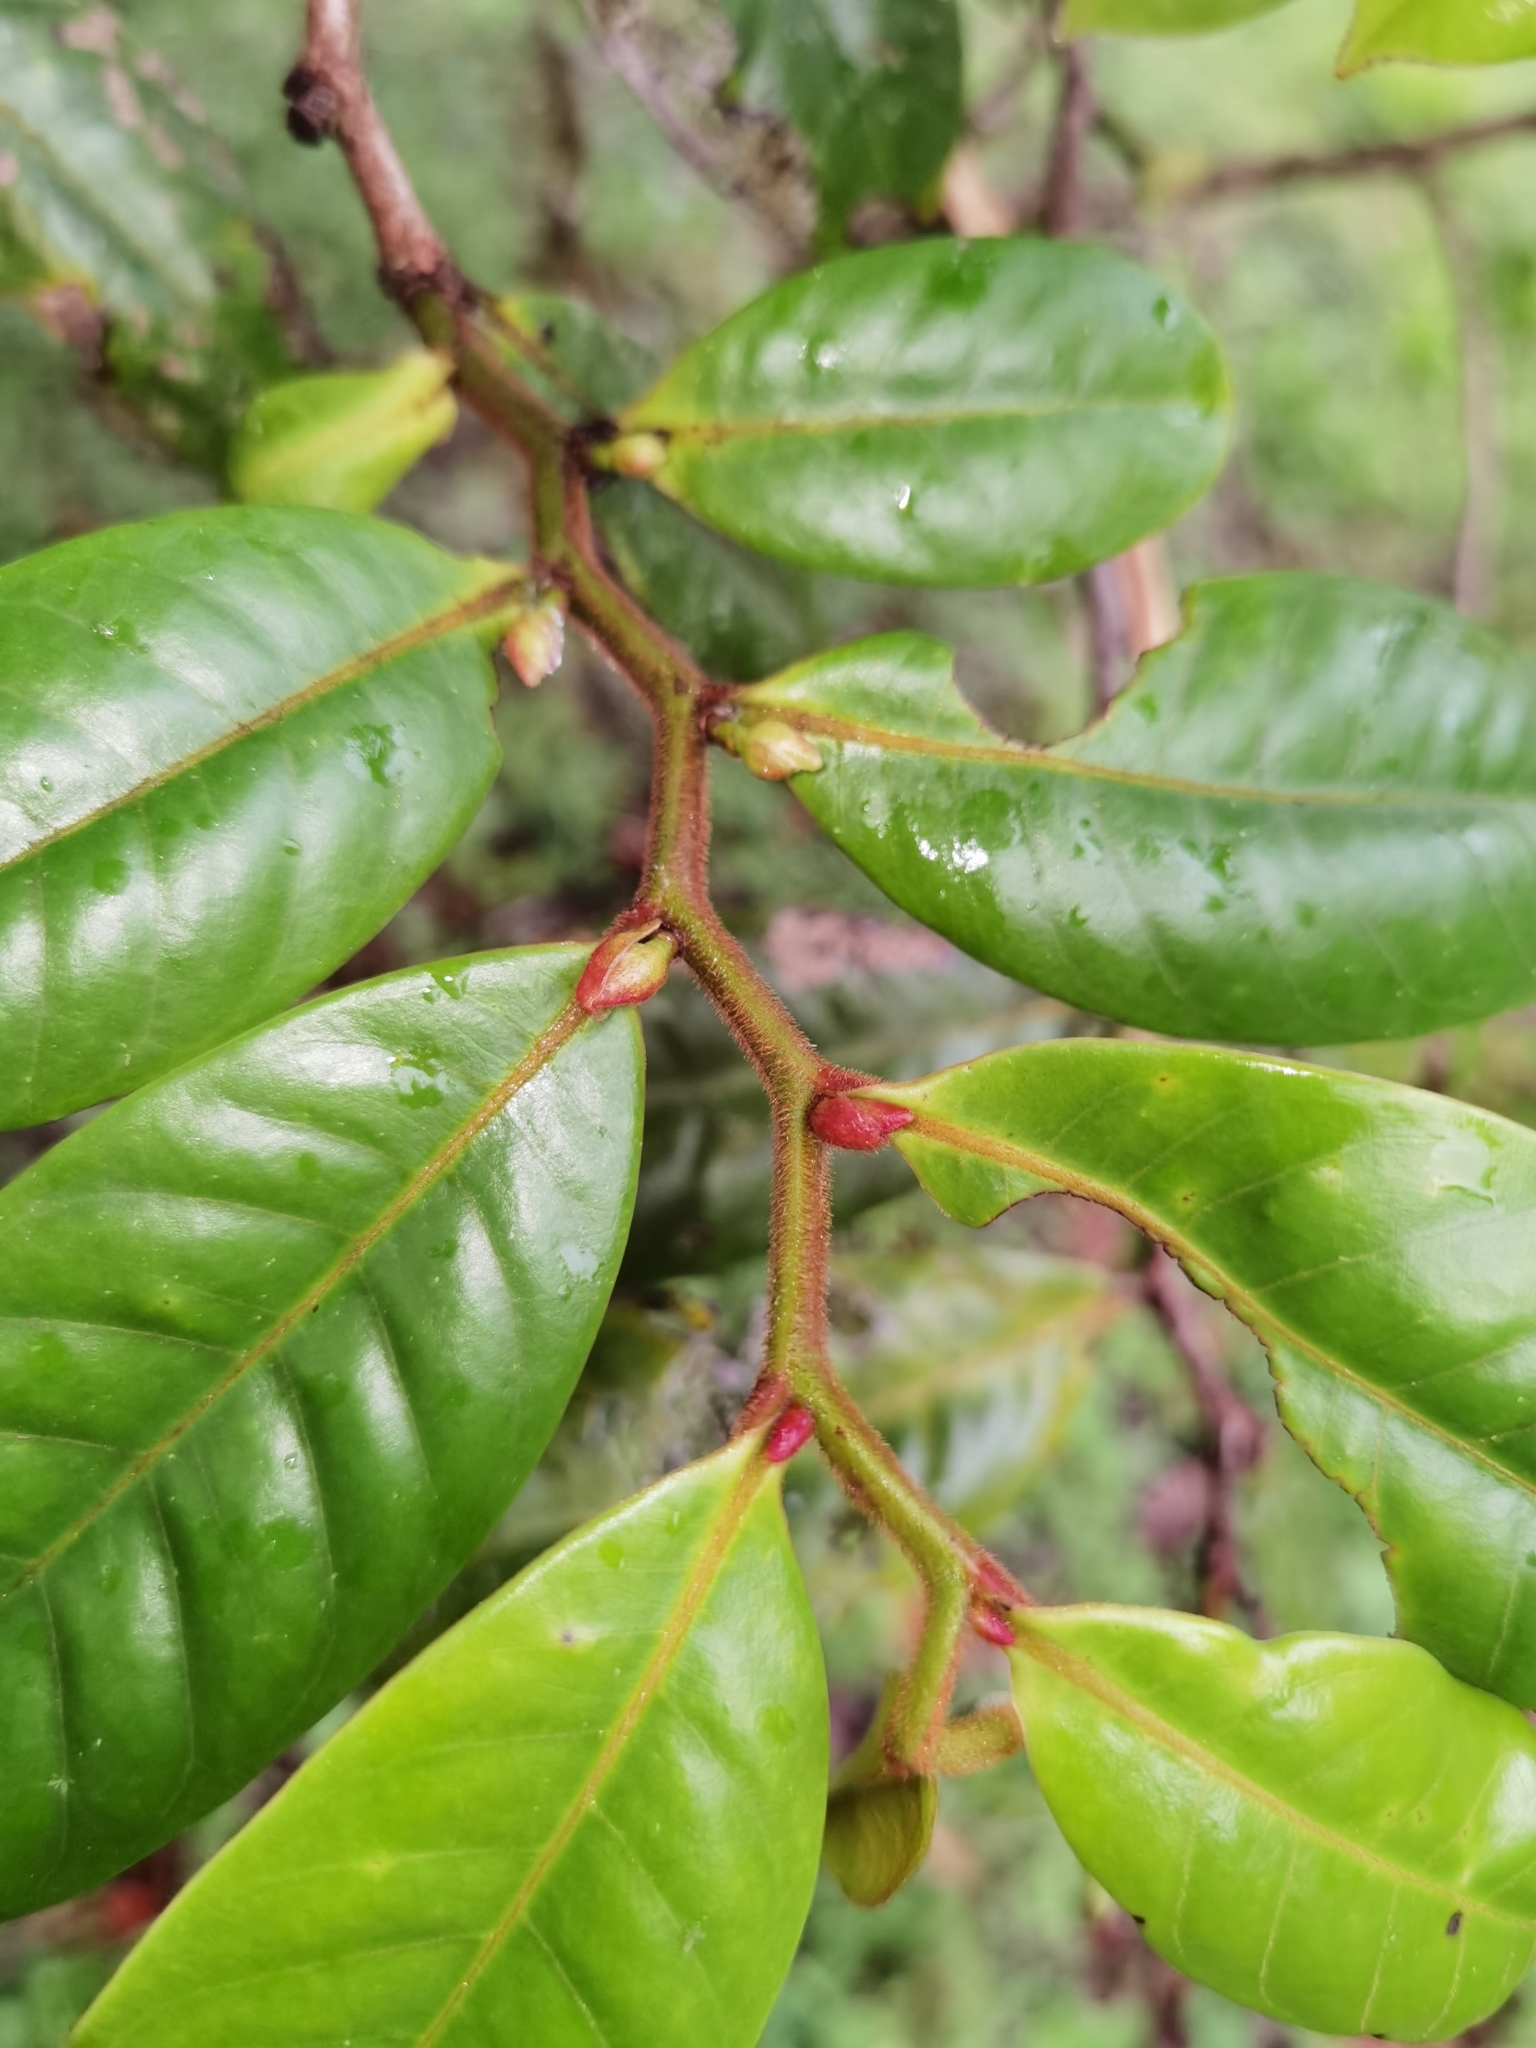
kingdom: Plantae
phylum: Tracheophyta
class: Magnoliopsida
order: Magnoliales
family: Annonaceae
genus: Guatteria
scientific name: Guatteria oliviformis
